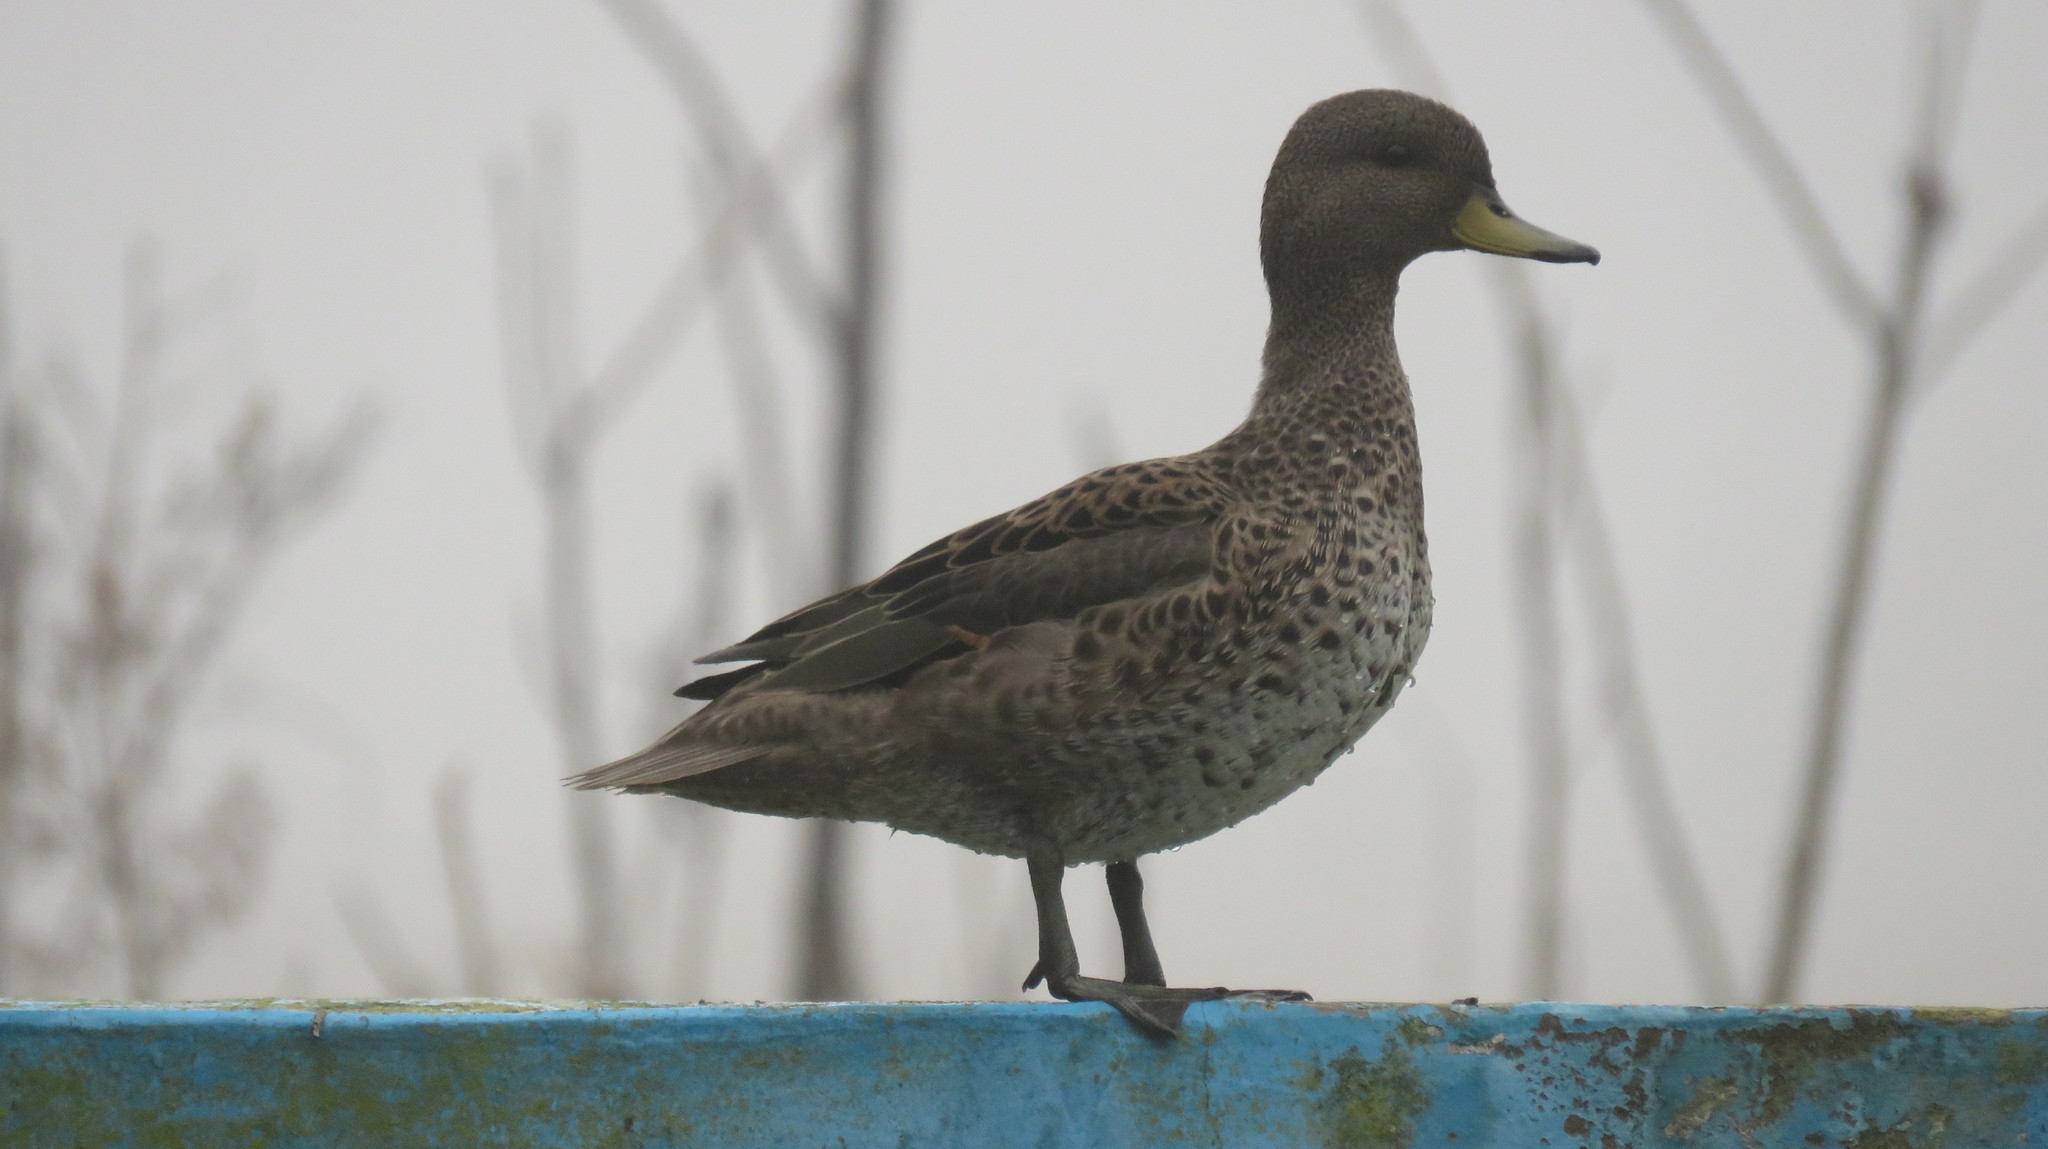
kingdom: Animalia
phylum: Chordata
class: Aves
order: Anseriformes
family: Anatidae
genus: Anas
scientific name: Anas flavirostris
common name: Yellow-billed teal
